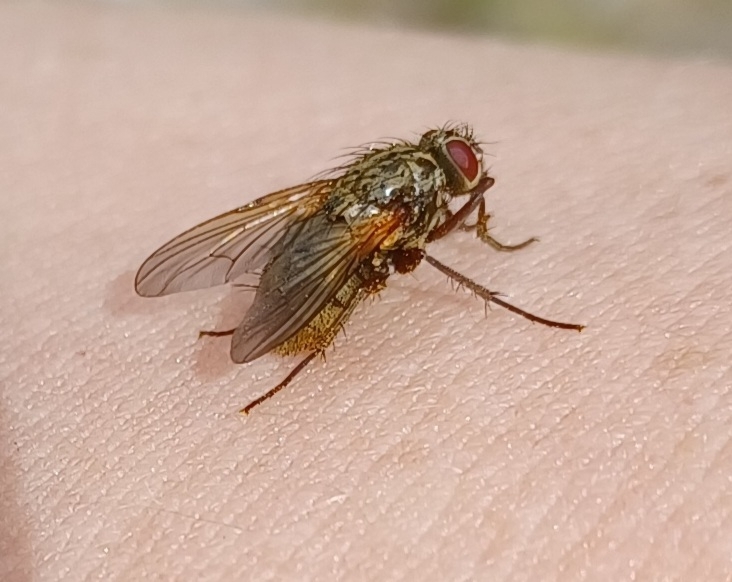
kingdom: Animalia
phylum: Arthropoda
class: Insecta
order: Diptera
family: Muscidae
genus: Phaonia
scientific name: Phaonia angelicae
